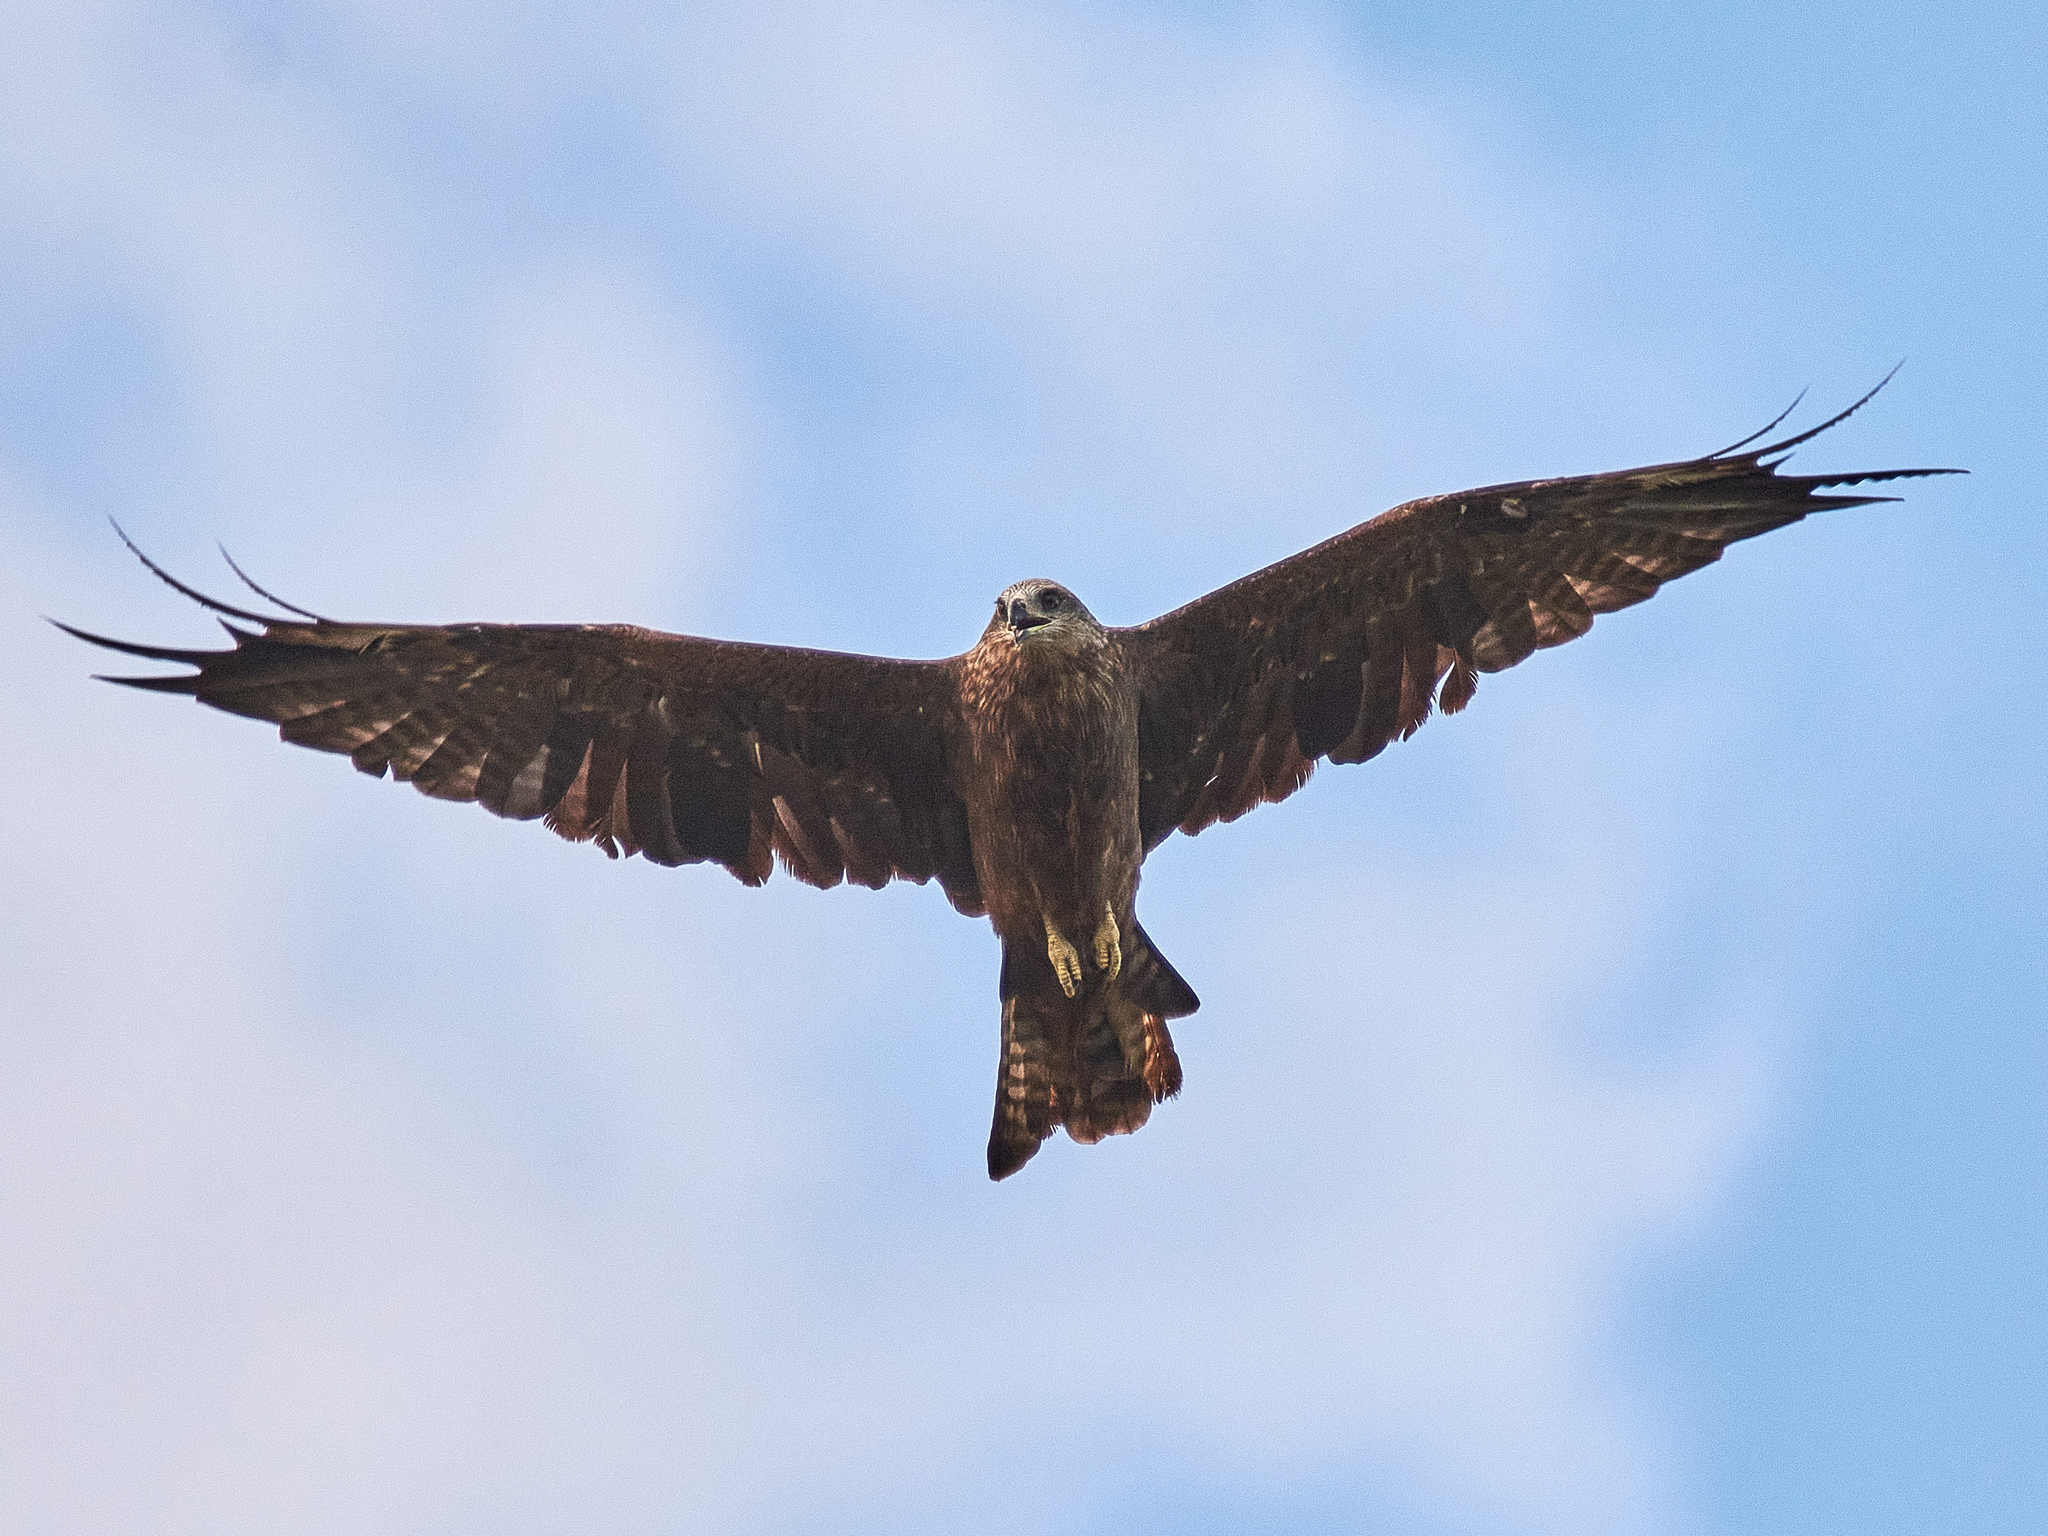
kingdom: Animalia
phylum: Chordata
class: Aves
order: Accipitriformes
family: Accipitridae
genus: Milvus
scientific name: Milvus migrans
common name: Black kite
